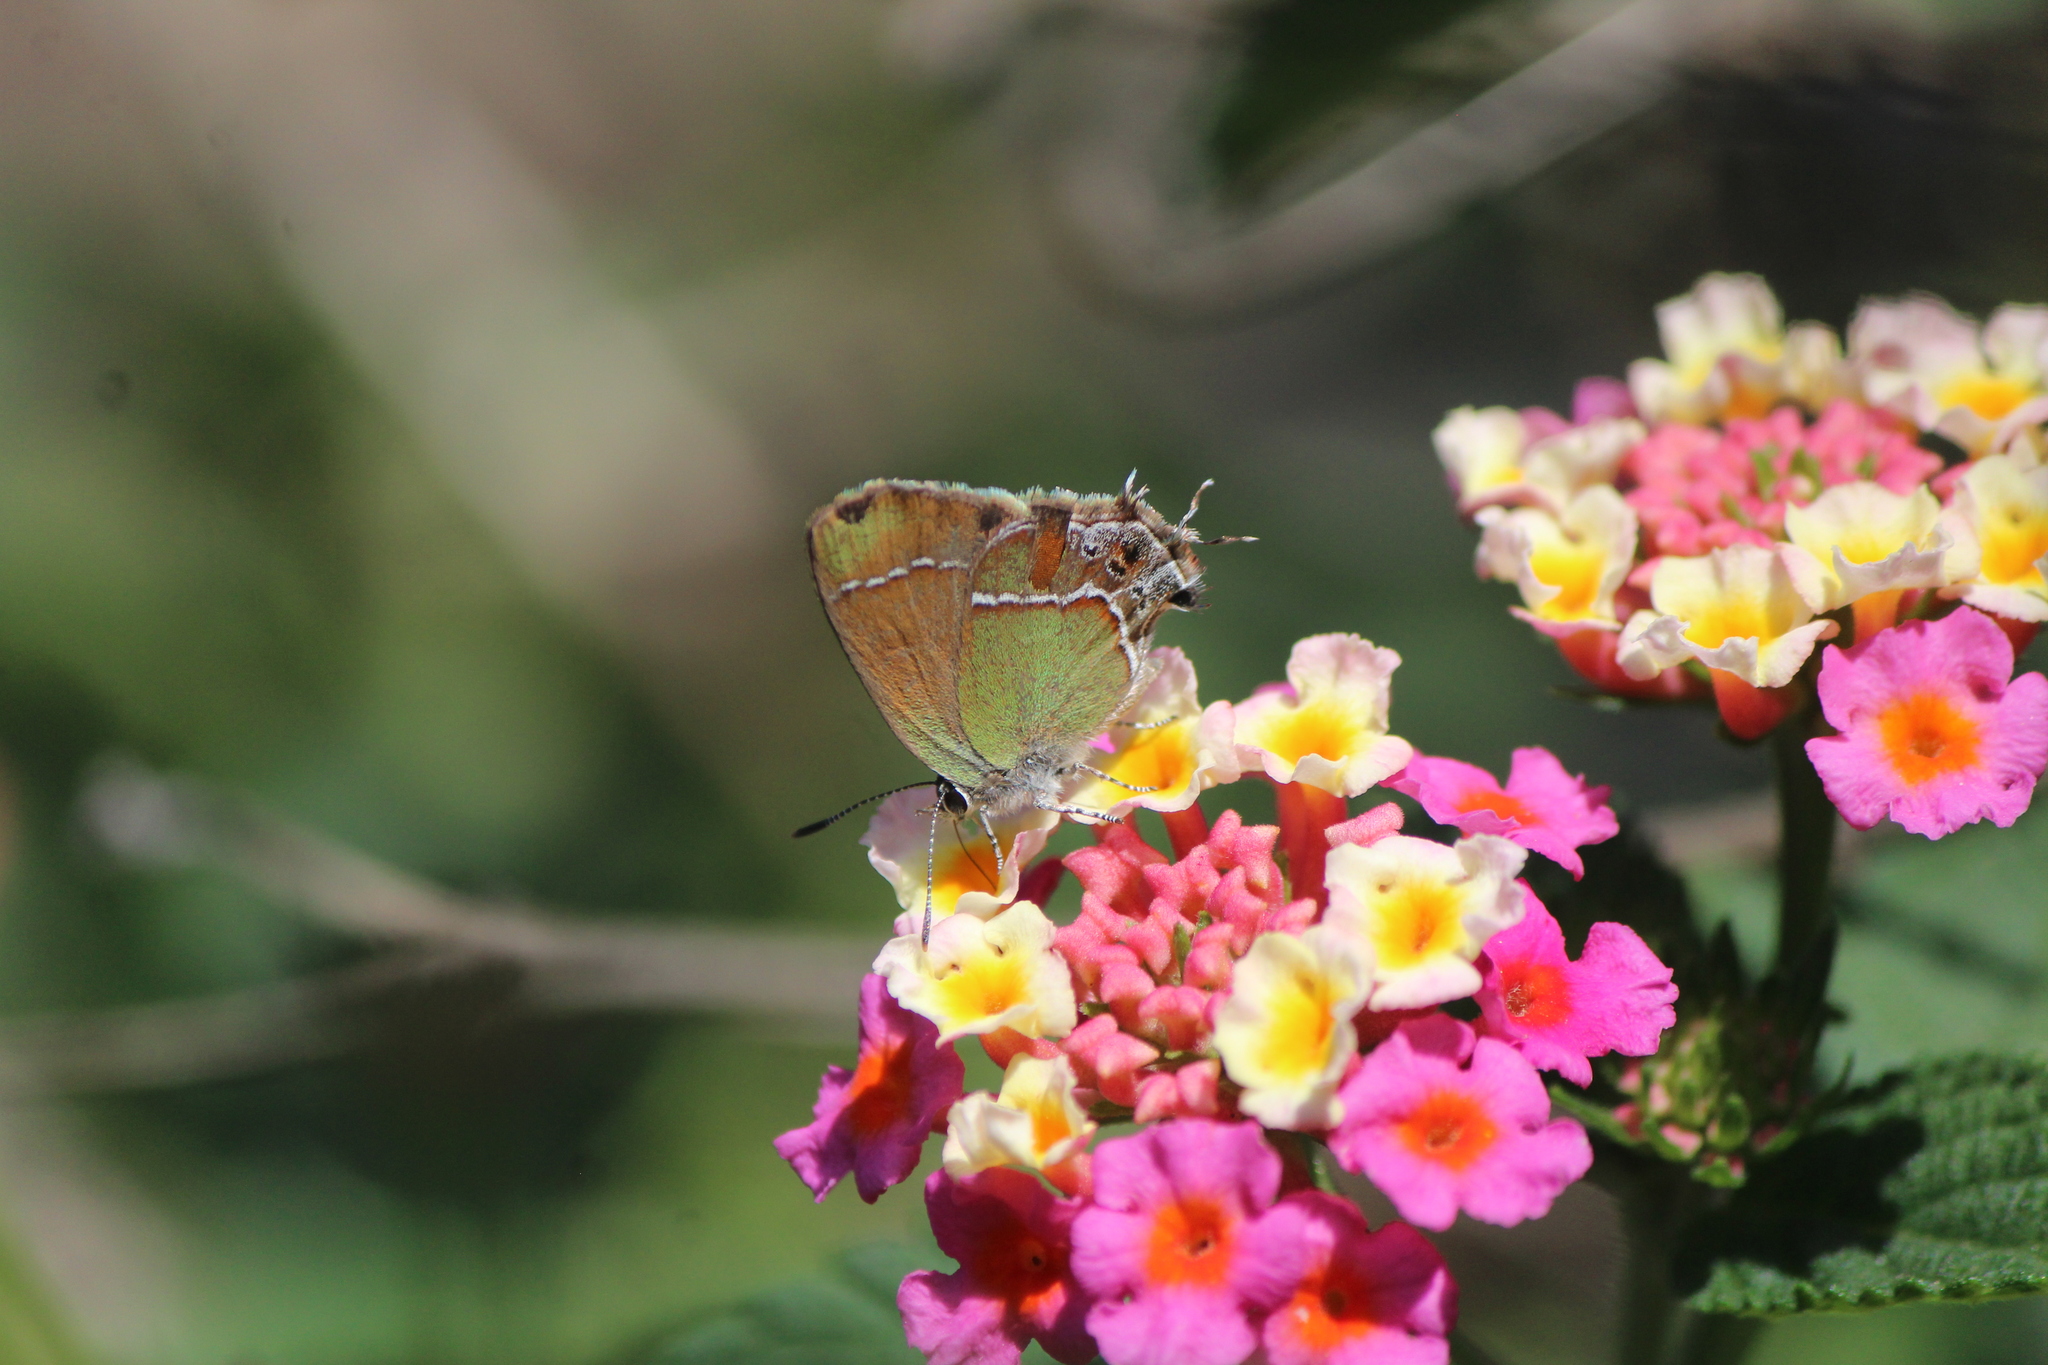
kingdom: Animalia
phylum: Arthropoda
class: Insecta
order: Lepidoptera
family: Lycaenidae
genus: Xamia
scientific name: Xamia xami
